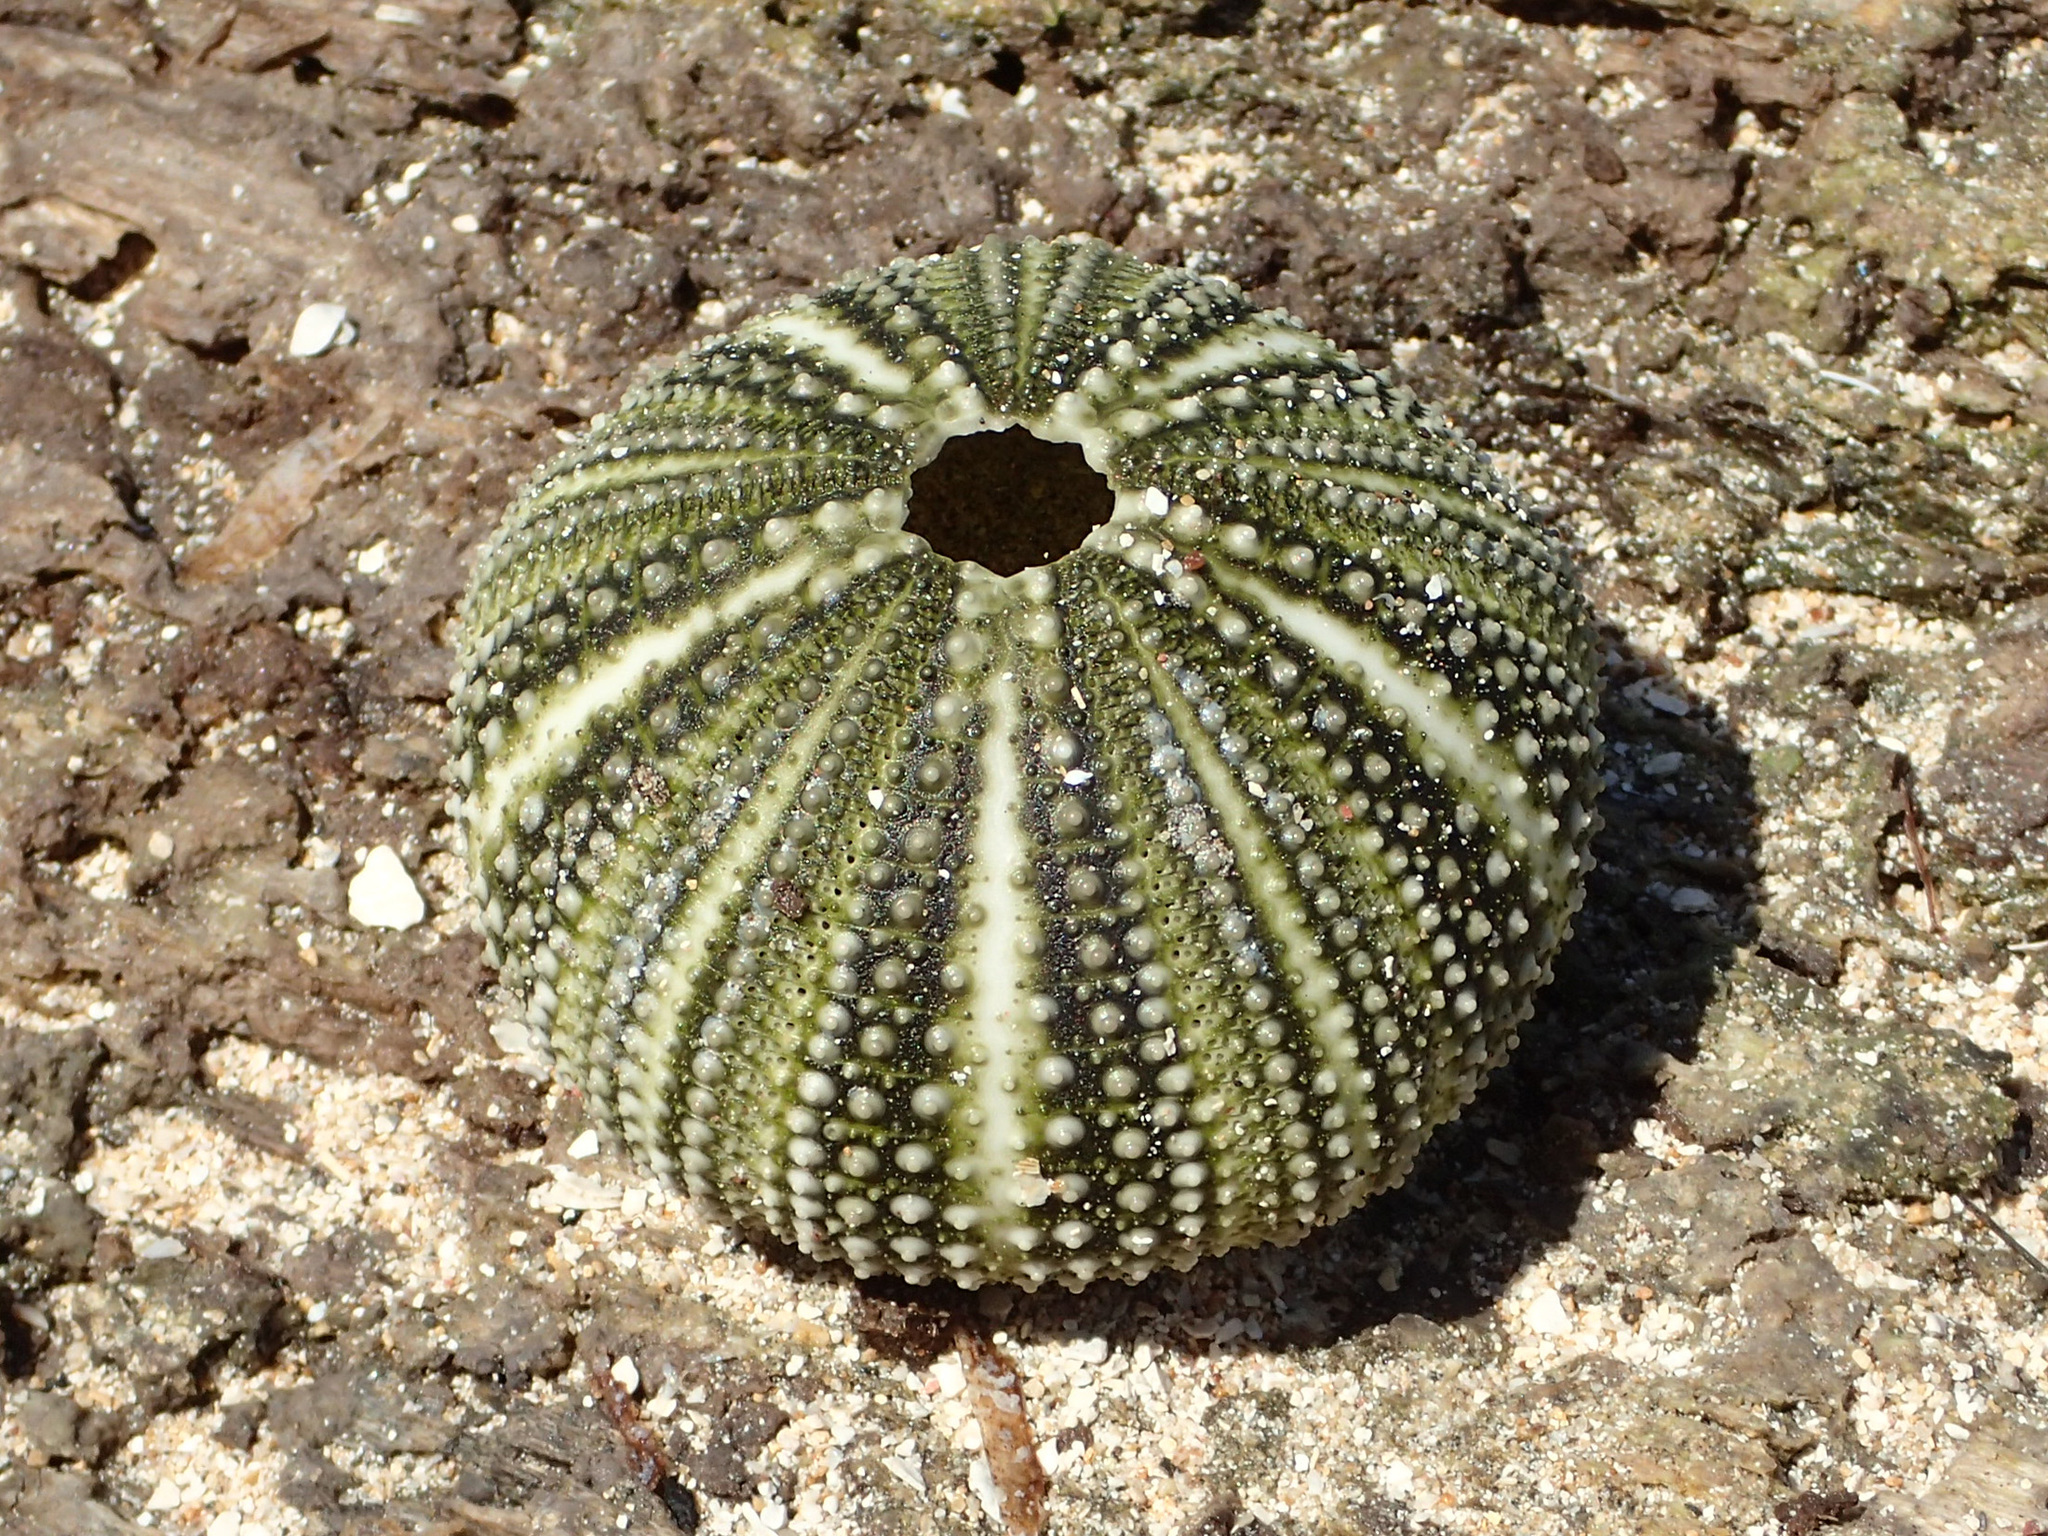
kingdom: Animalia
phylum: Echinodermata
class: Echinoidea
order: Camarodonta
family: Toxopneustidae
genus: Lytechinus
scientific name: Lytechinus variegatus
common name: Variegated urchin
